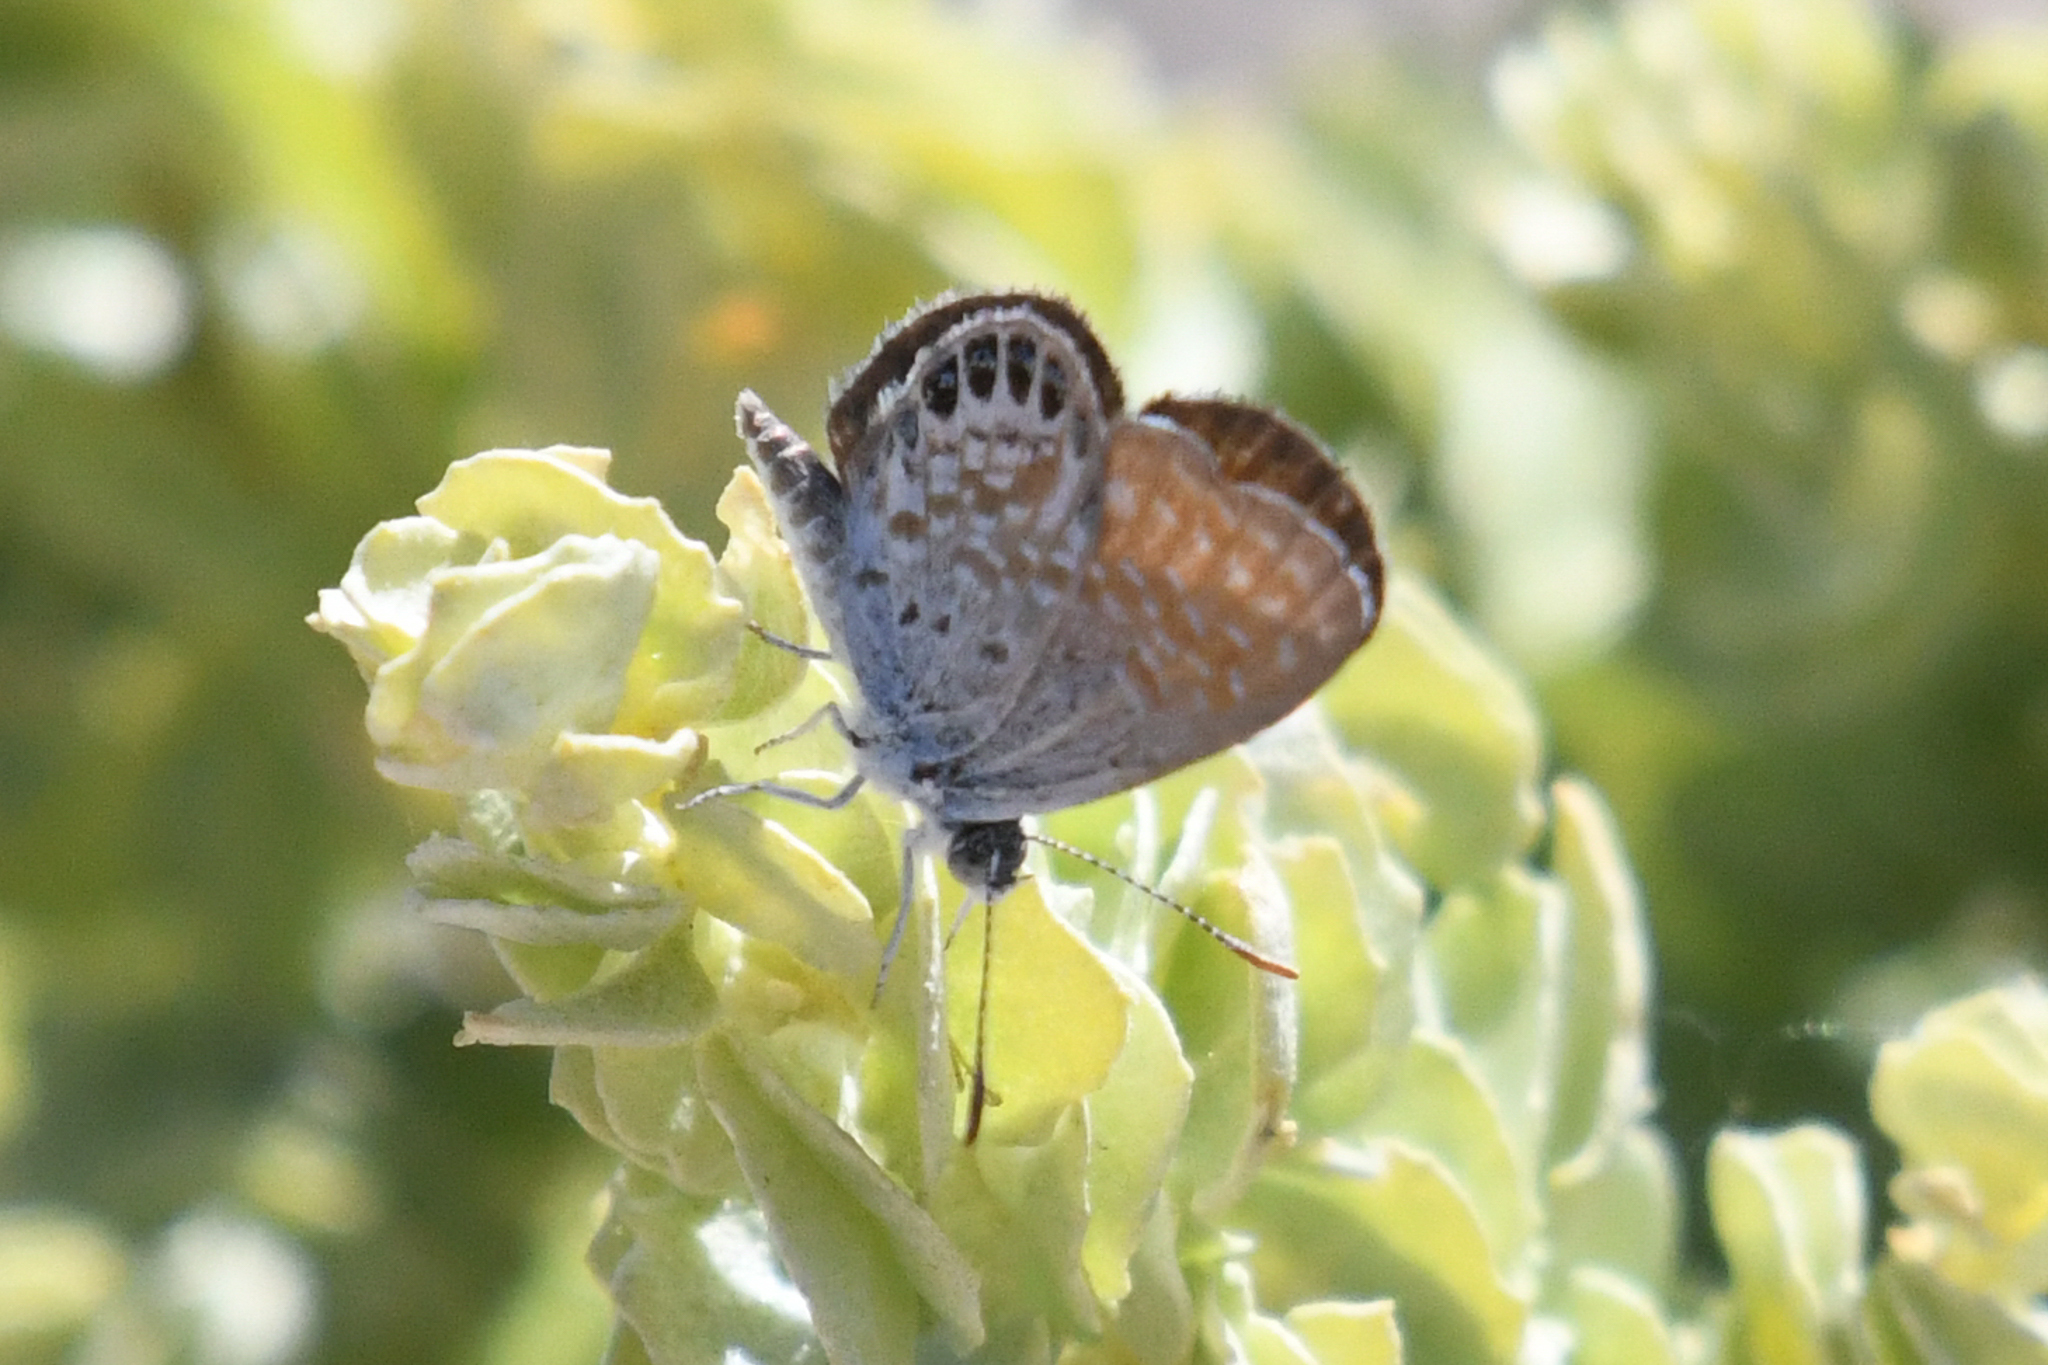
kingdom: Animalia
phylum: Arthropoda
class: Insecta
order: Lepidoptera
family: Lycaenidae
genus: Brephidium
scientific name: Brephidium exilis
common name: Pygmy blue
